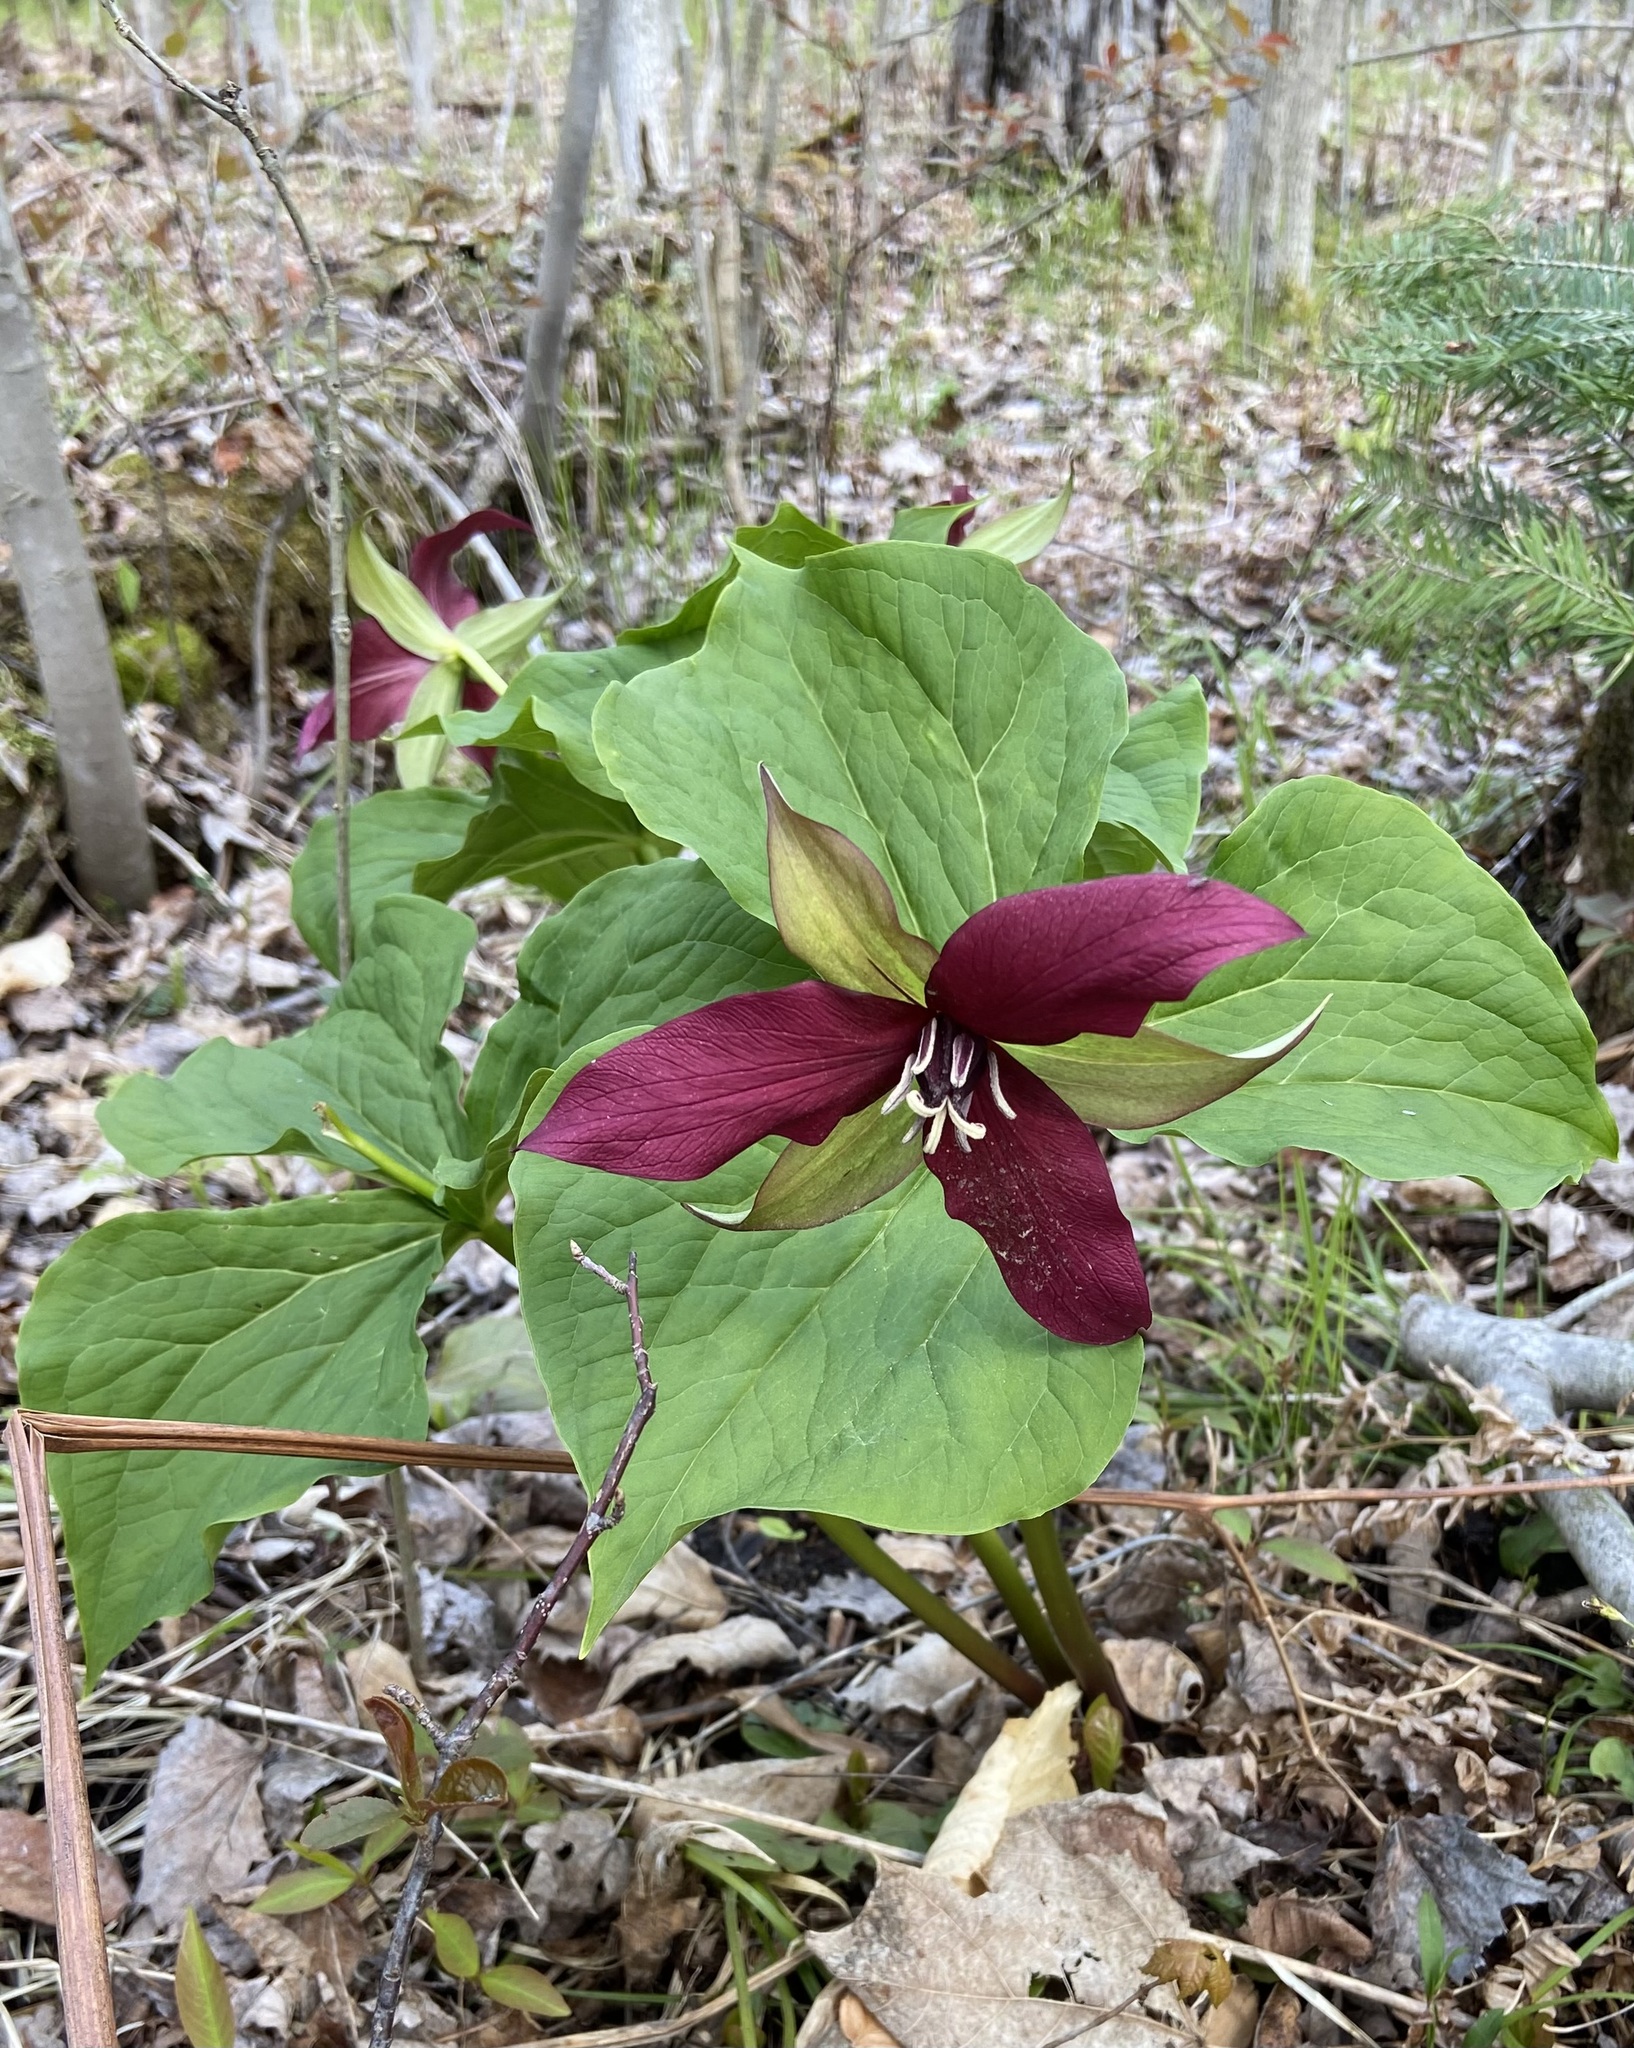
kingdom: Plantae
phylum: Tracheophyta
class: Liliopsida
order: Liliales
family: Melanthiaceae
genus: Trillium
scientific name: Trillium erectum
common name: Purple trillium
